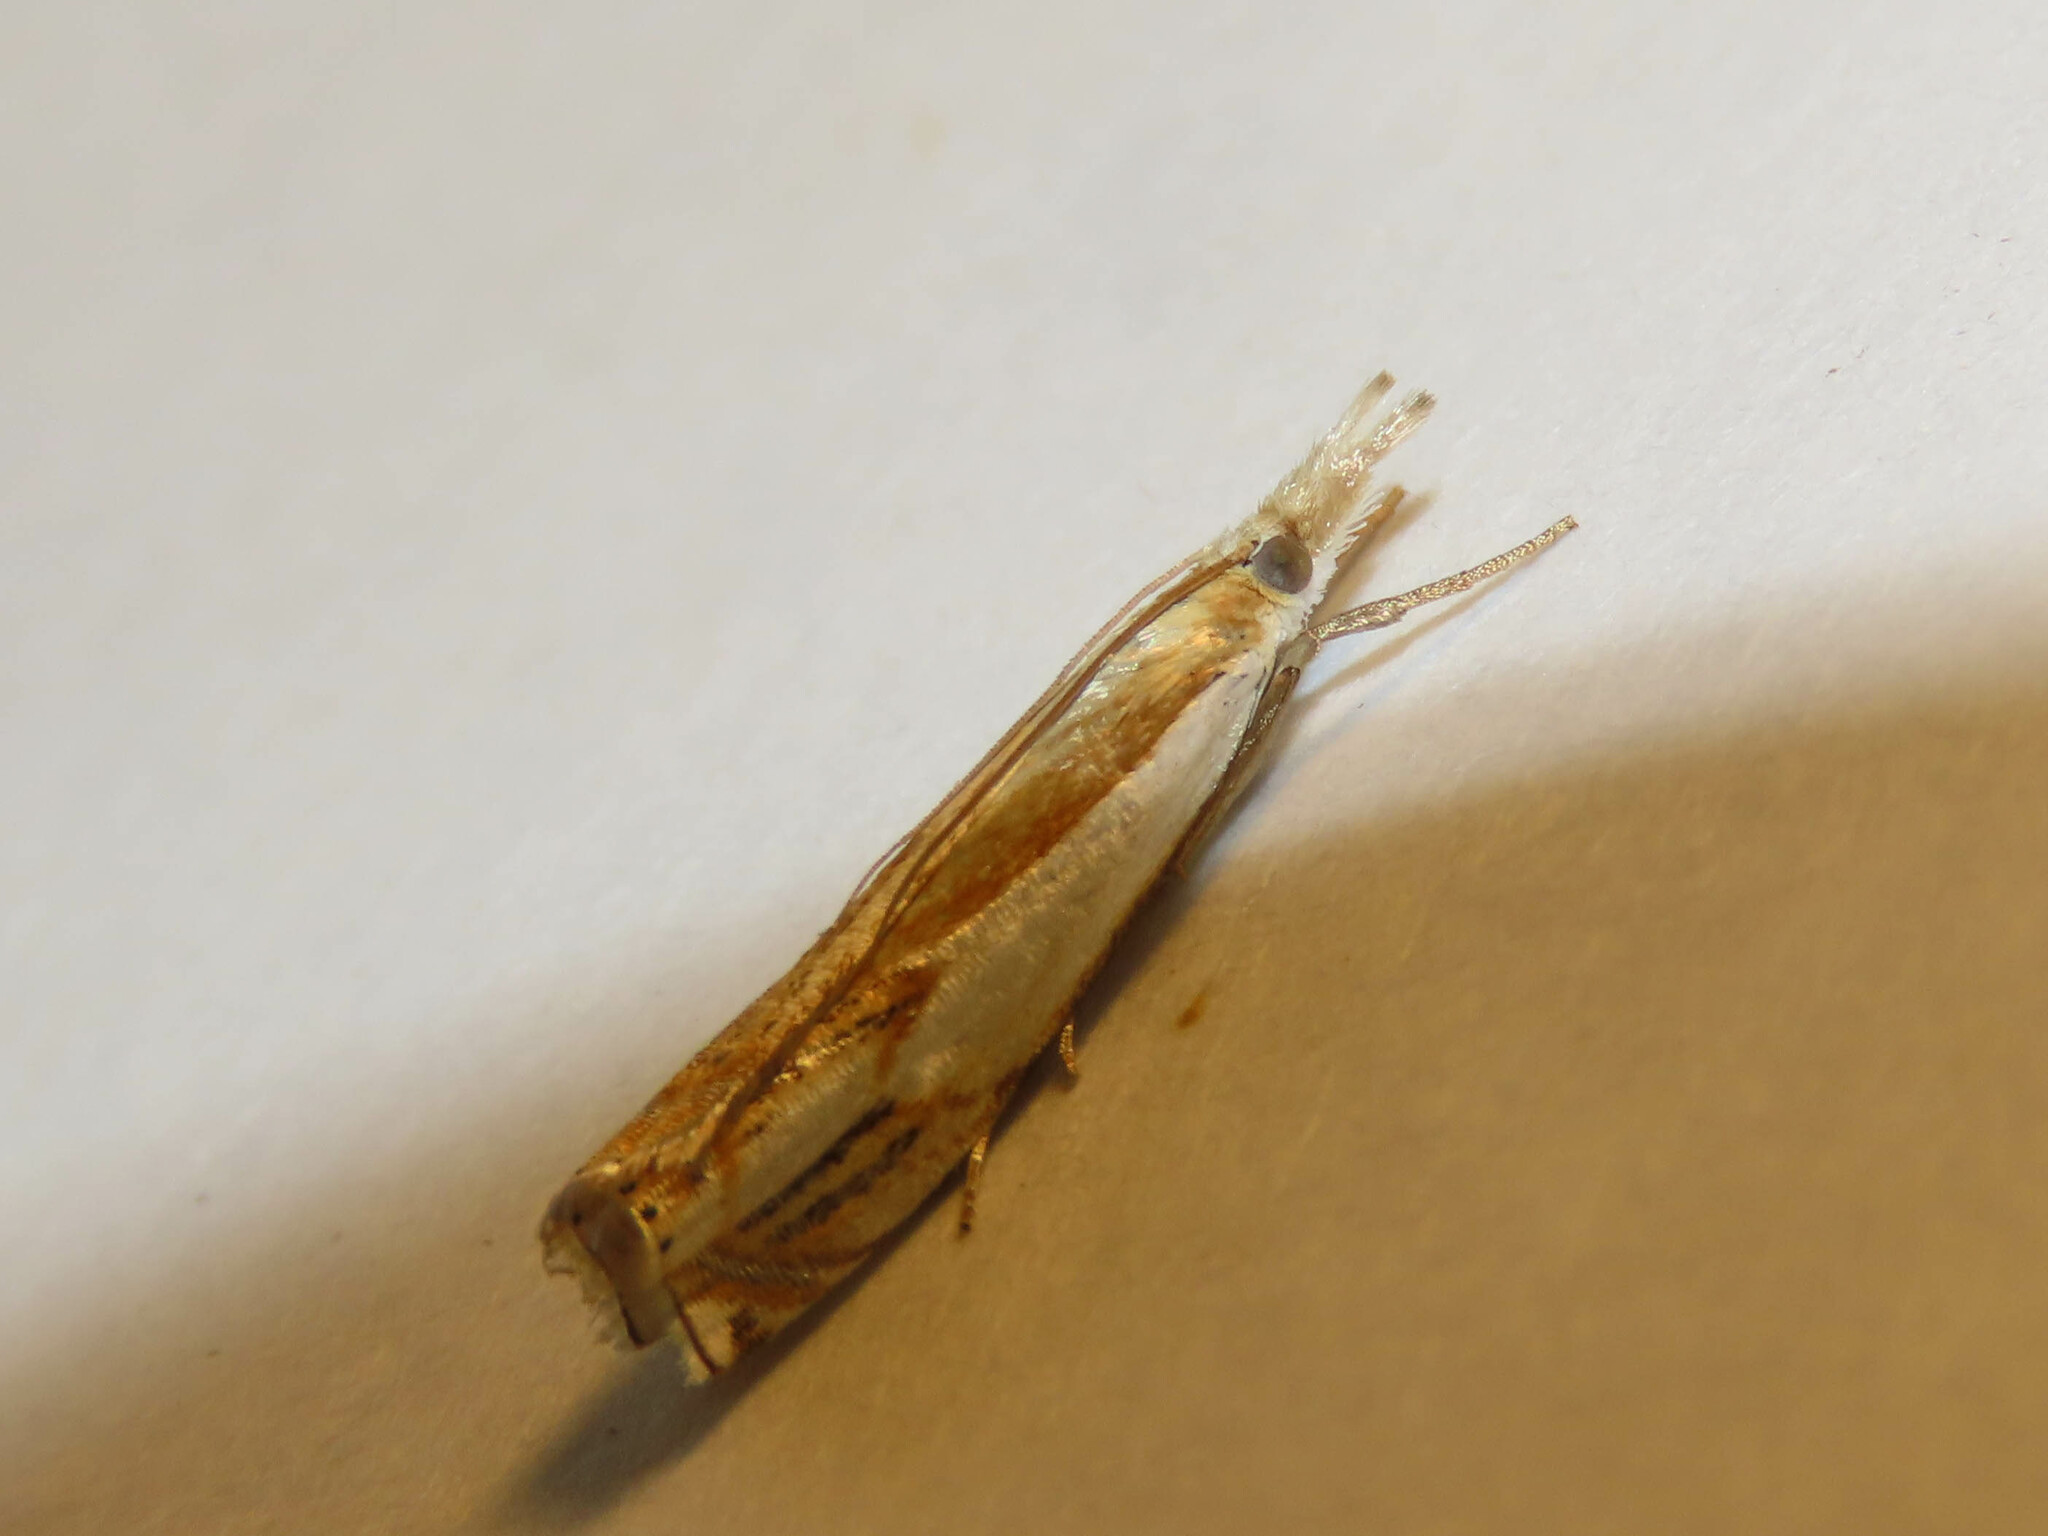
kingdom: Animalia
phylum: Arthropoda
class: Insecta
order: Lepidoptera
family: Crambidae
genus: Crambus
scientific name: Crambus agitatellus
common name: Double-banded grass-veneer
